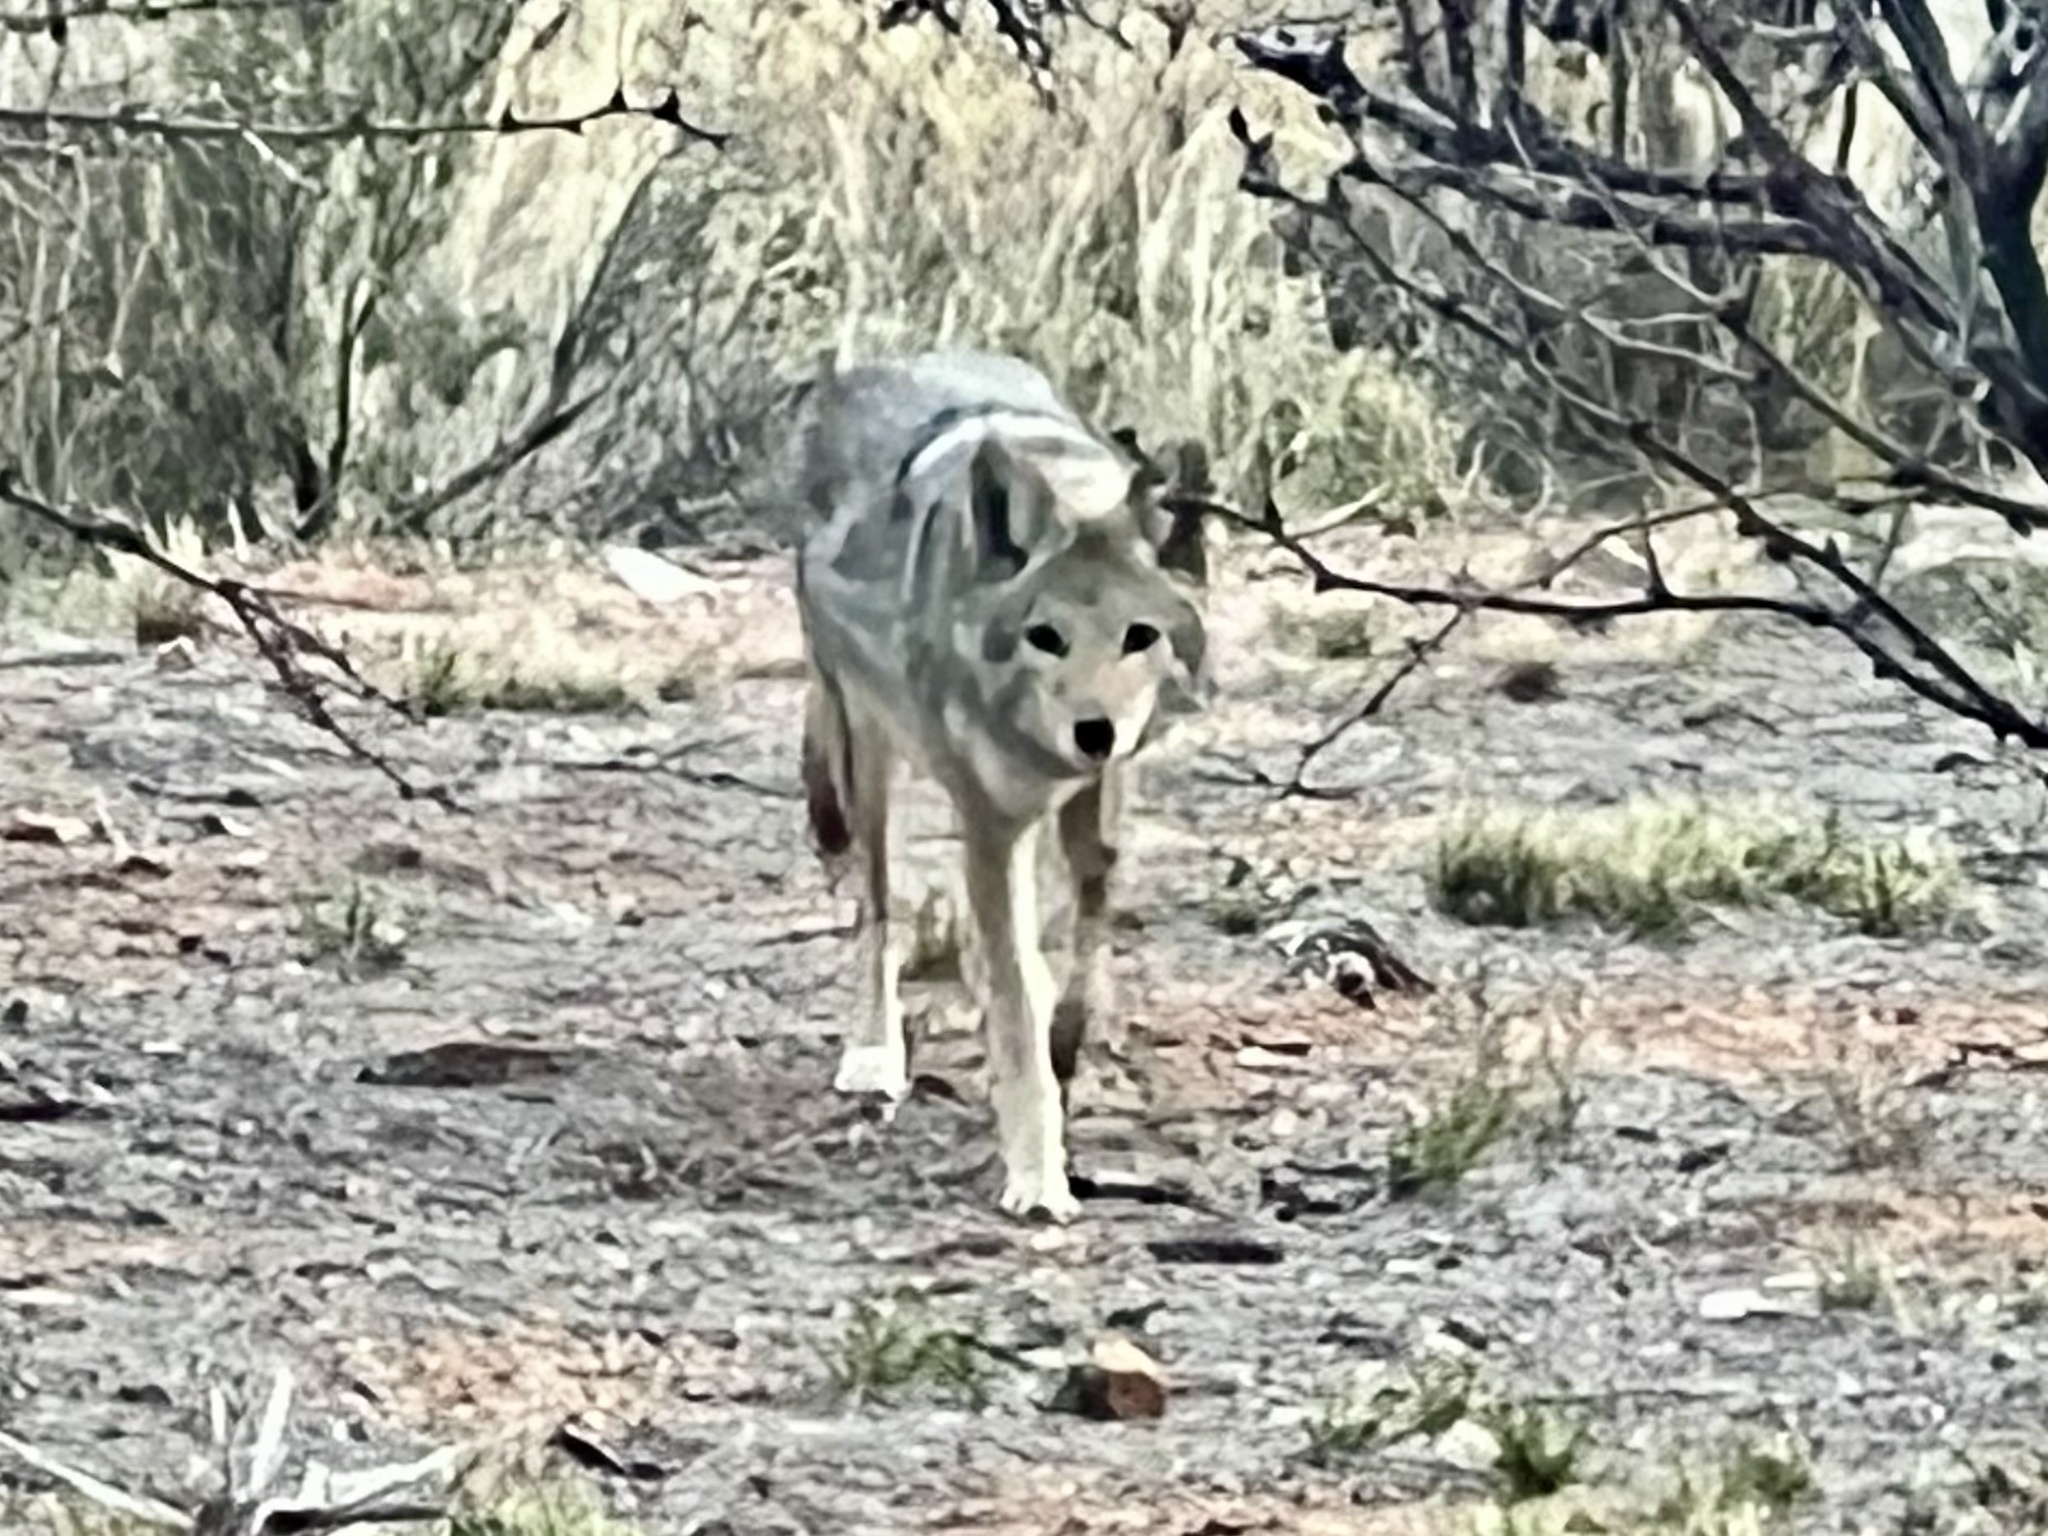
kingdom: Animalia
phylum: Chordata
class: Mammalia
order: Carnivora
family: Canidae
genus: Canis
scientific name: Canis latrans
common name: Coyote
